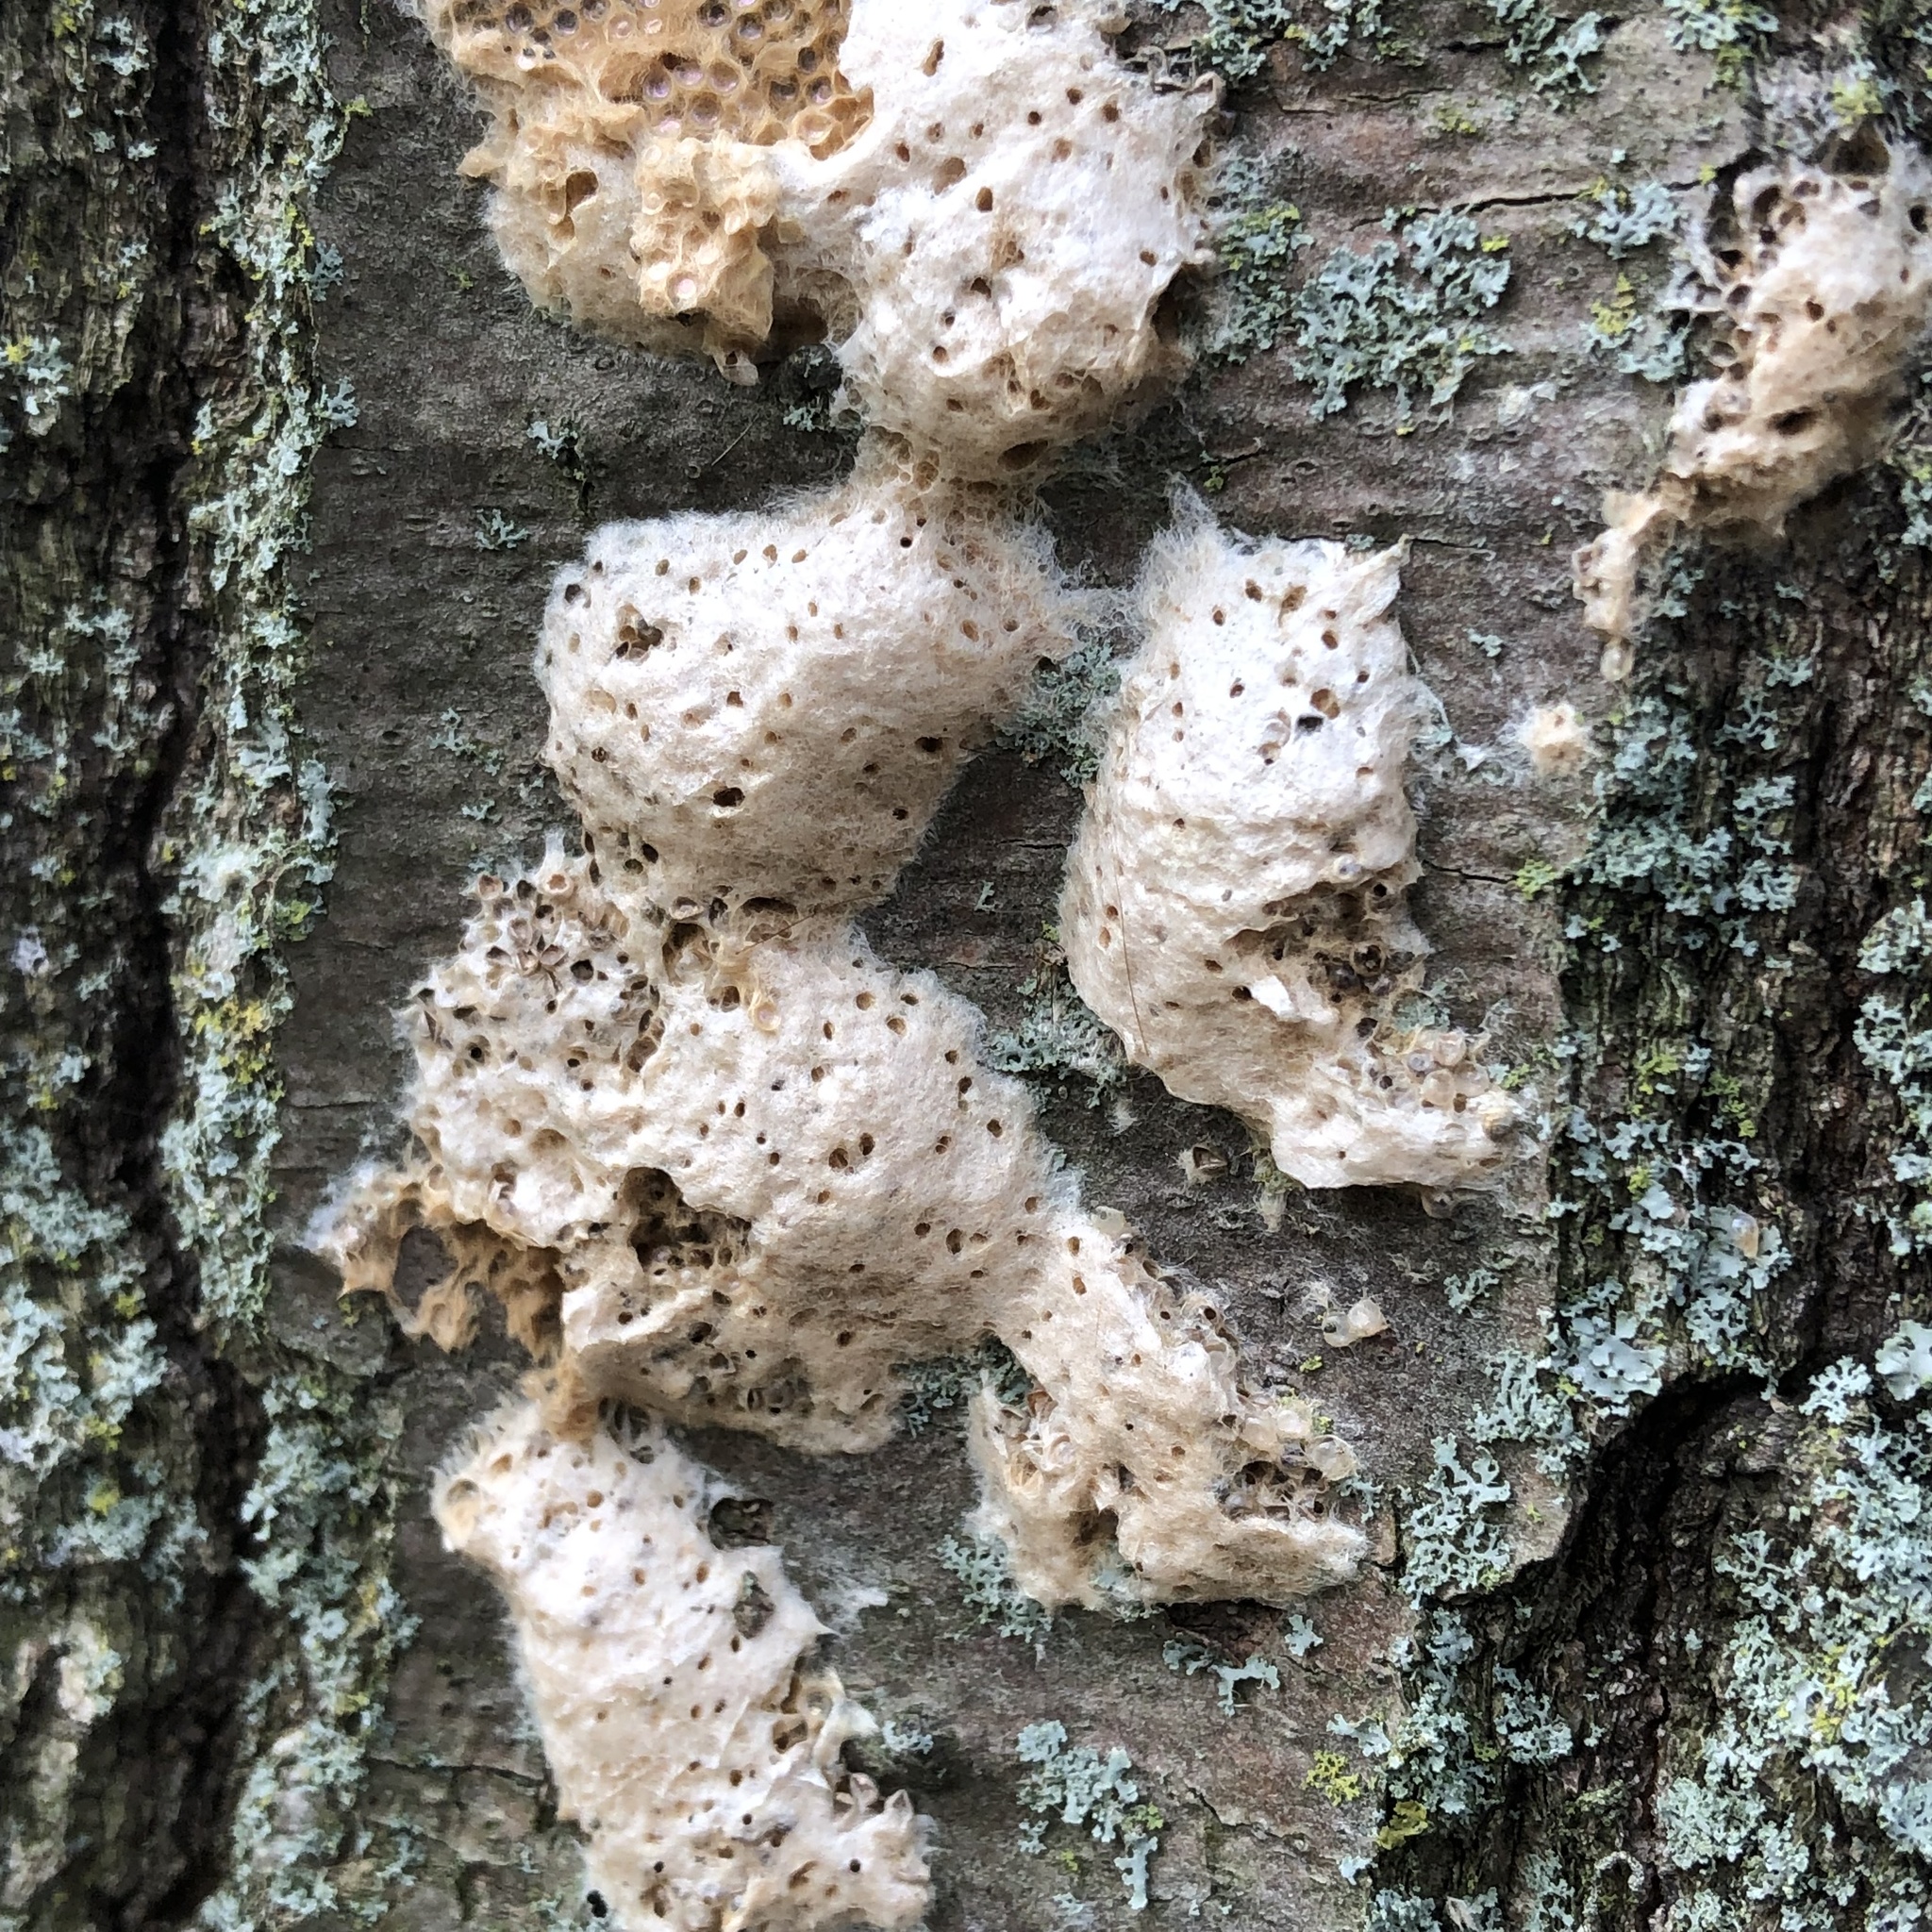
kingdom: Animalia
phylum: Arthropoda
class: Insecta
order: Lepidoptera
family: Erebidae
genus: Lymantria
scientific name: Lymantria dispar
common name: Gypsy moth
